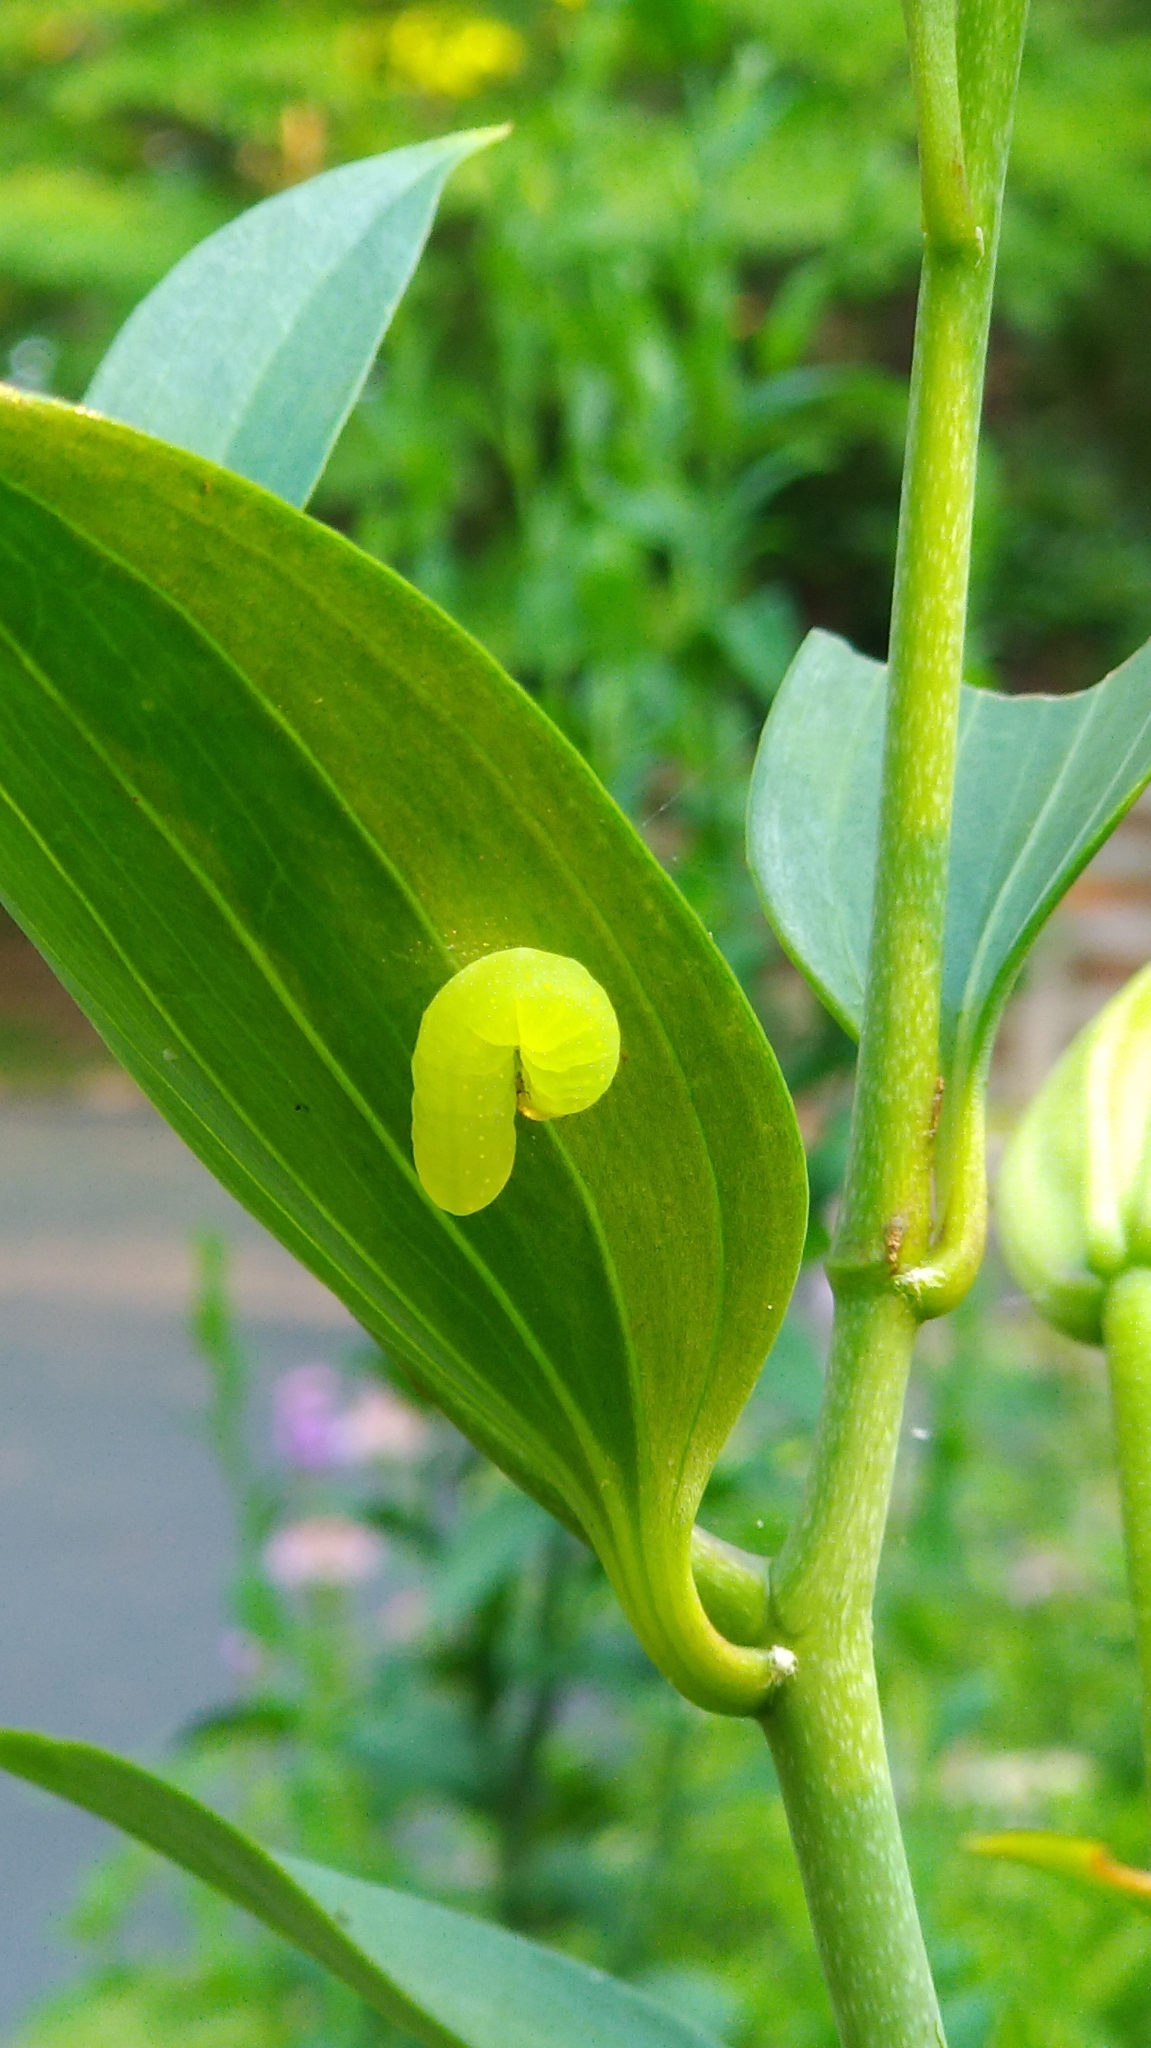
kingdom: Animalia
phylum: Arthropoda
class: Insecta
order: Lepidoptera
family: Noctuidae
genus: Phosphila
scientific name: Phosphila miselioides
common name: Spotted phosphila moth
